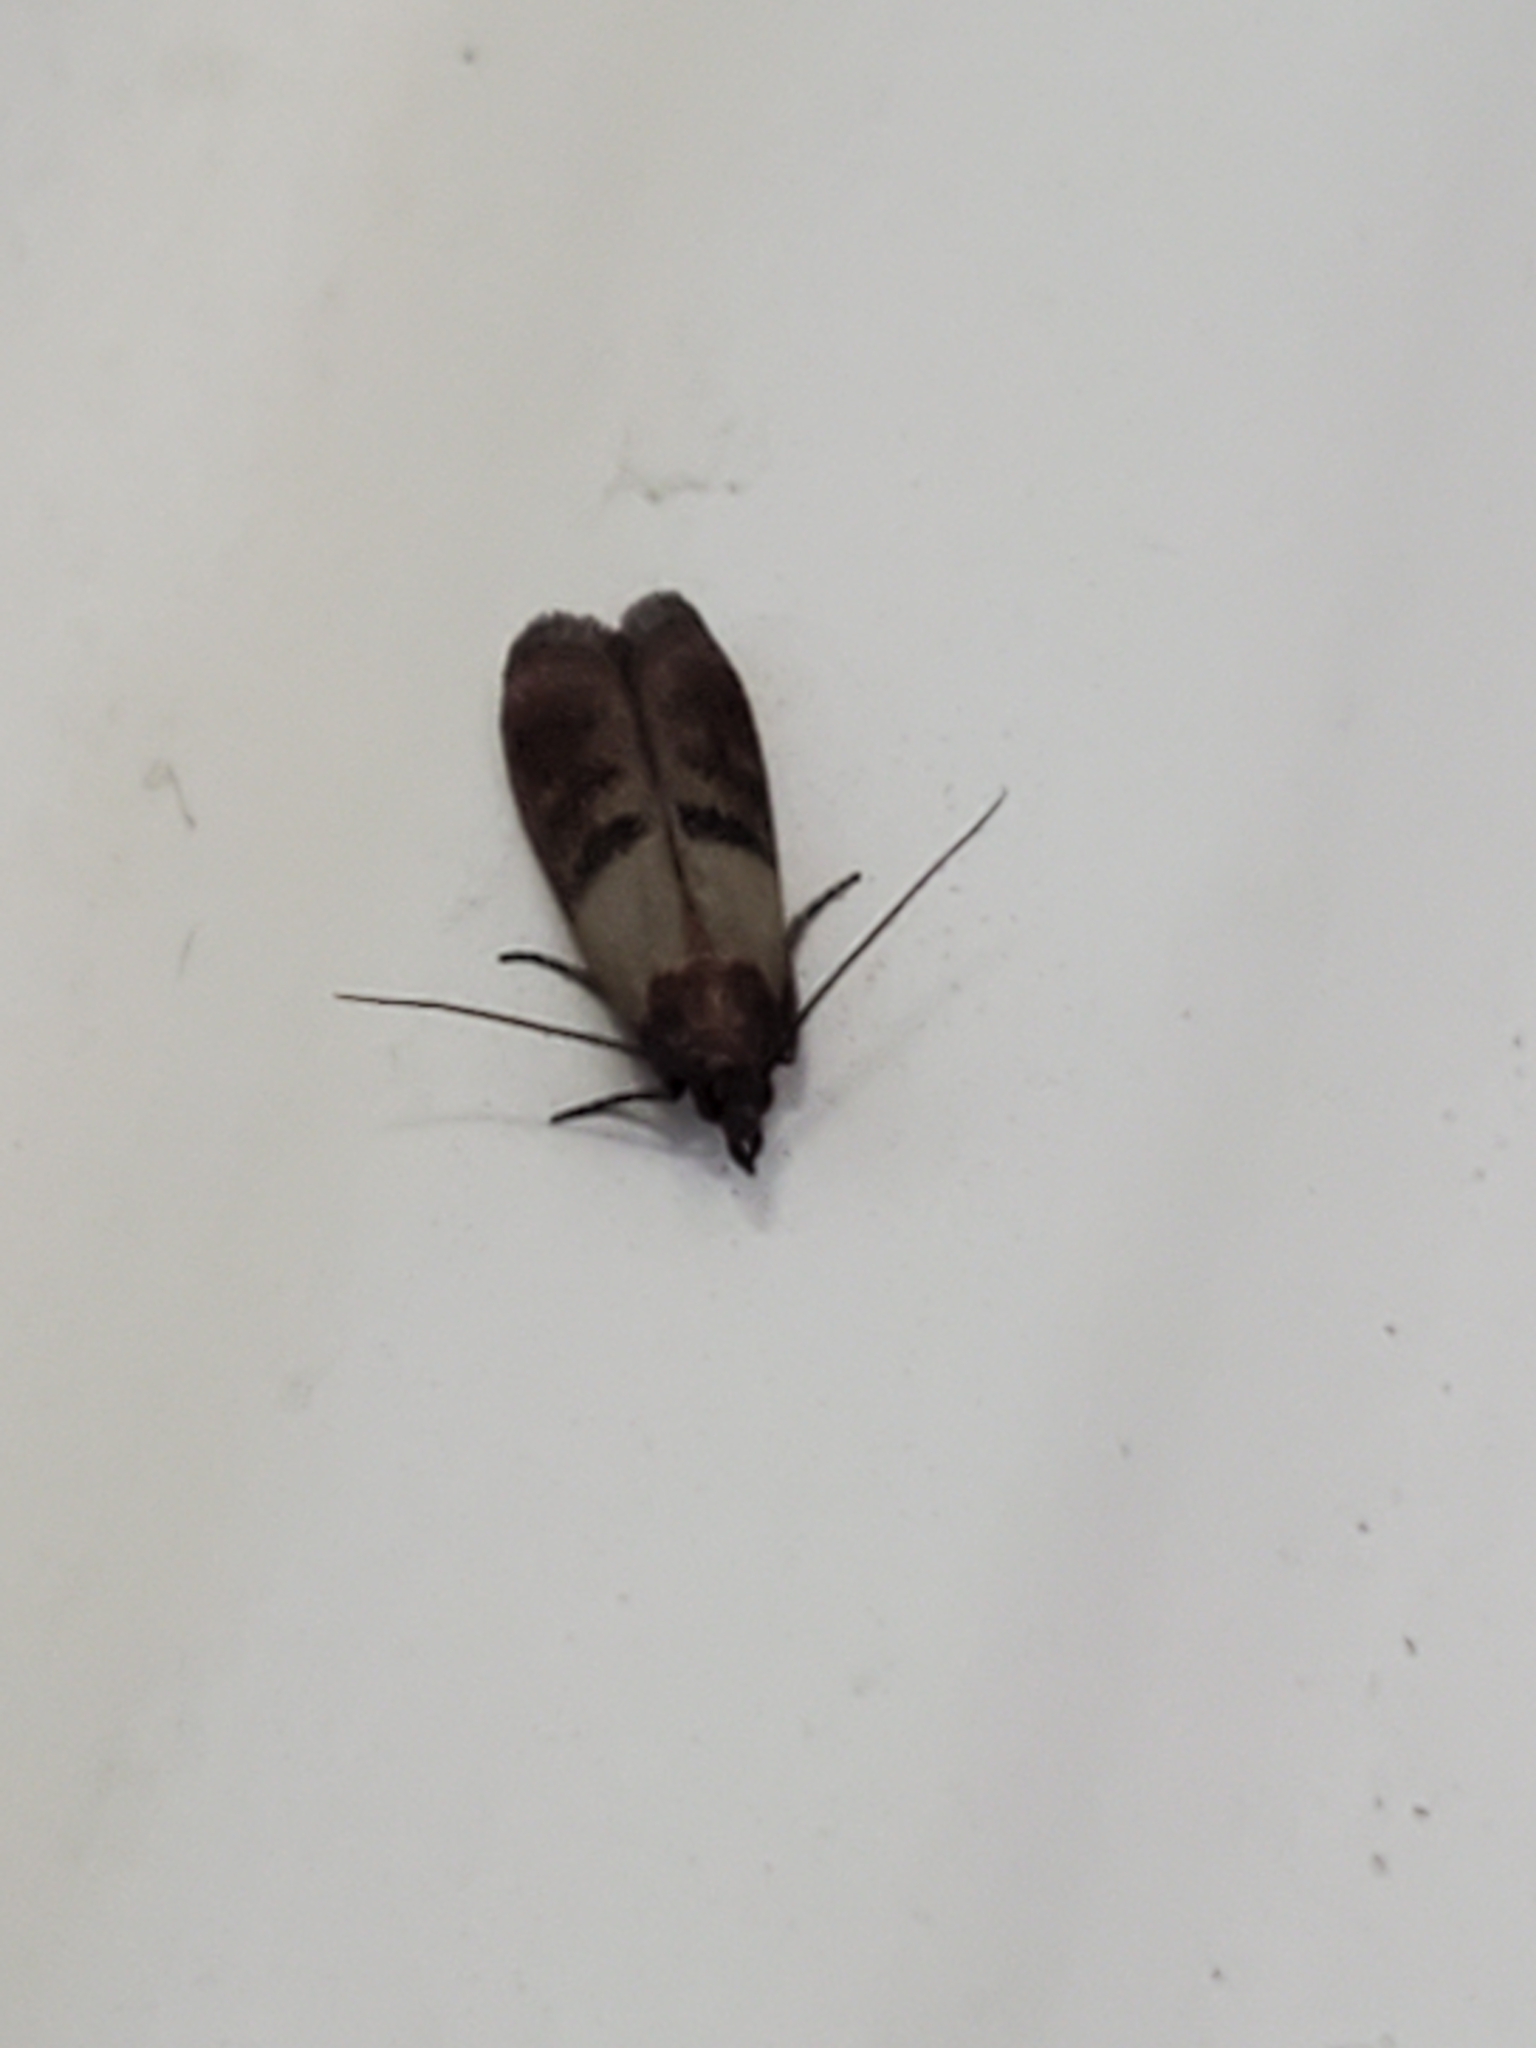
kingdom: Animalia
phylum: Arthropoda
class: Insecta
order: Lepidoptera
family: Pyralidae
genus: Plodia
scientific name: Plodia interpunctella
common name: Indian meal moth
